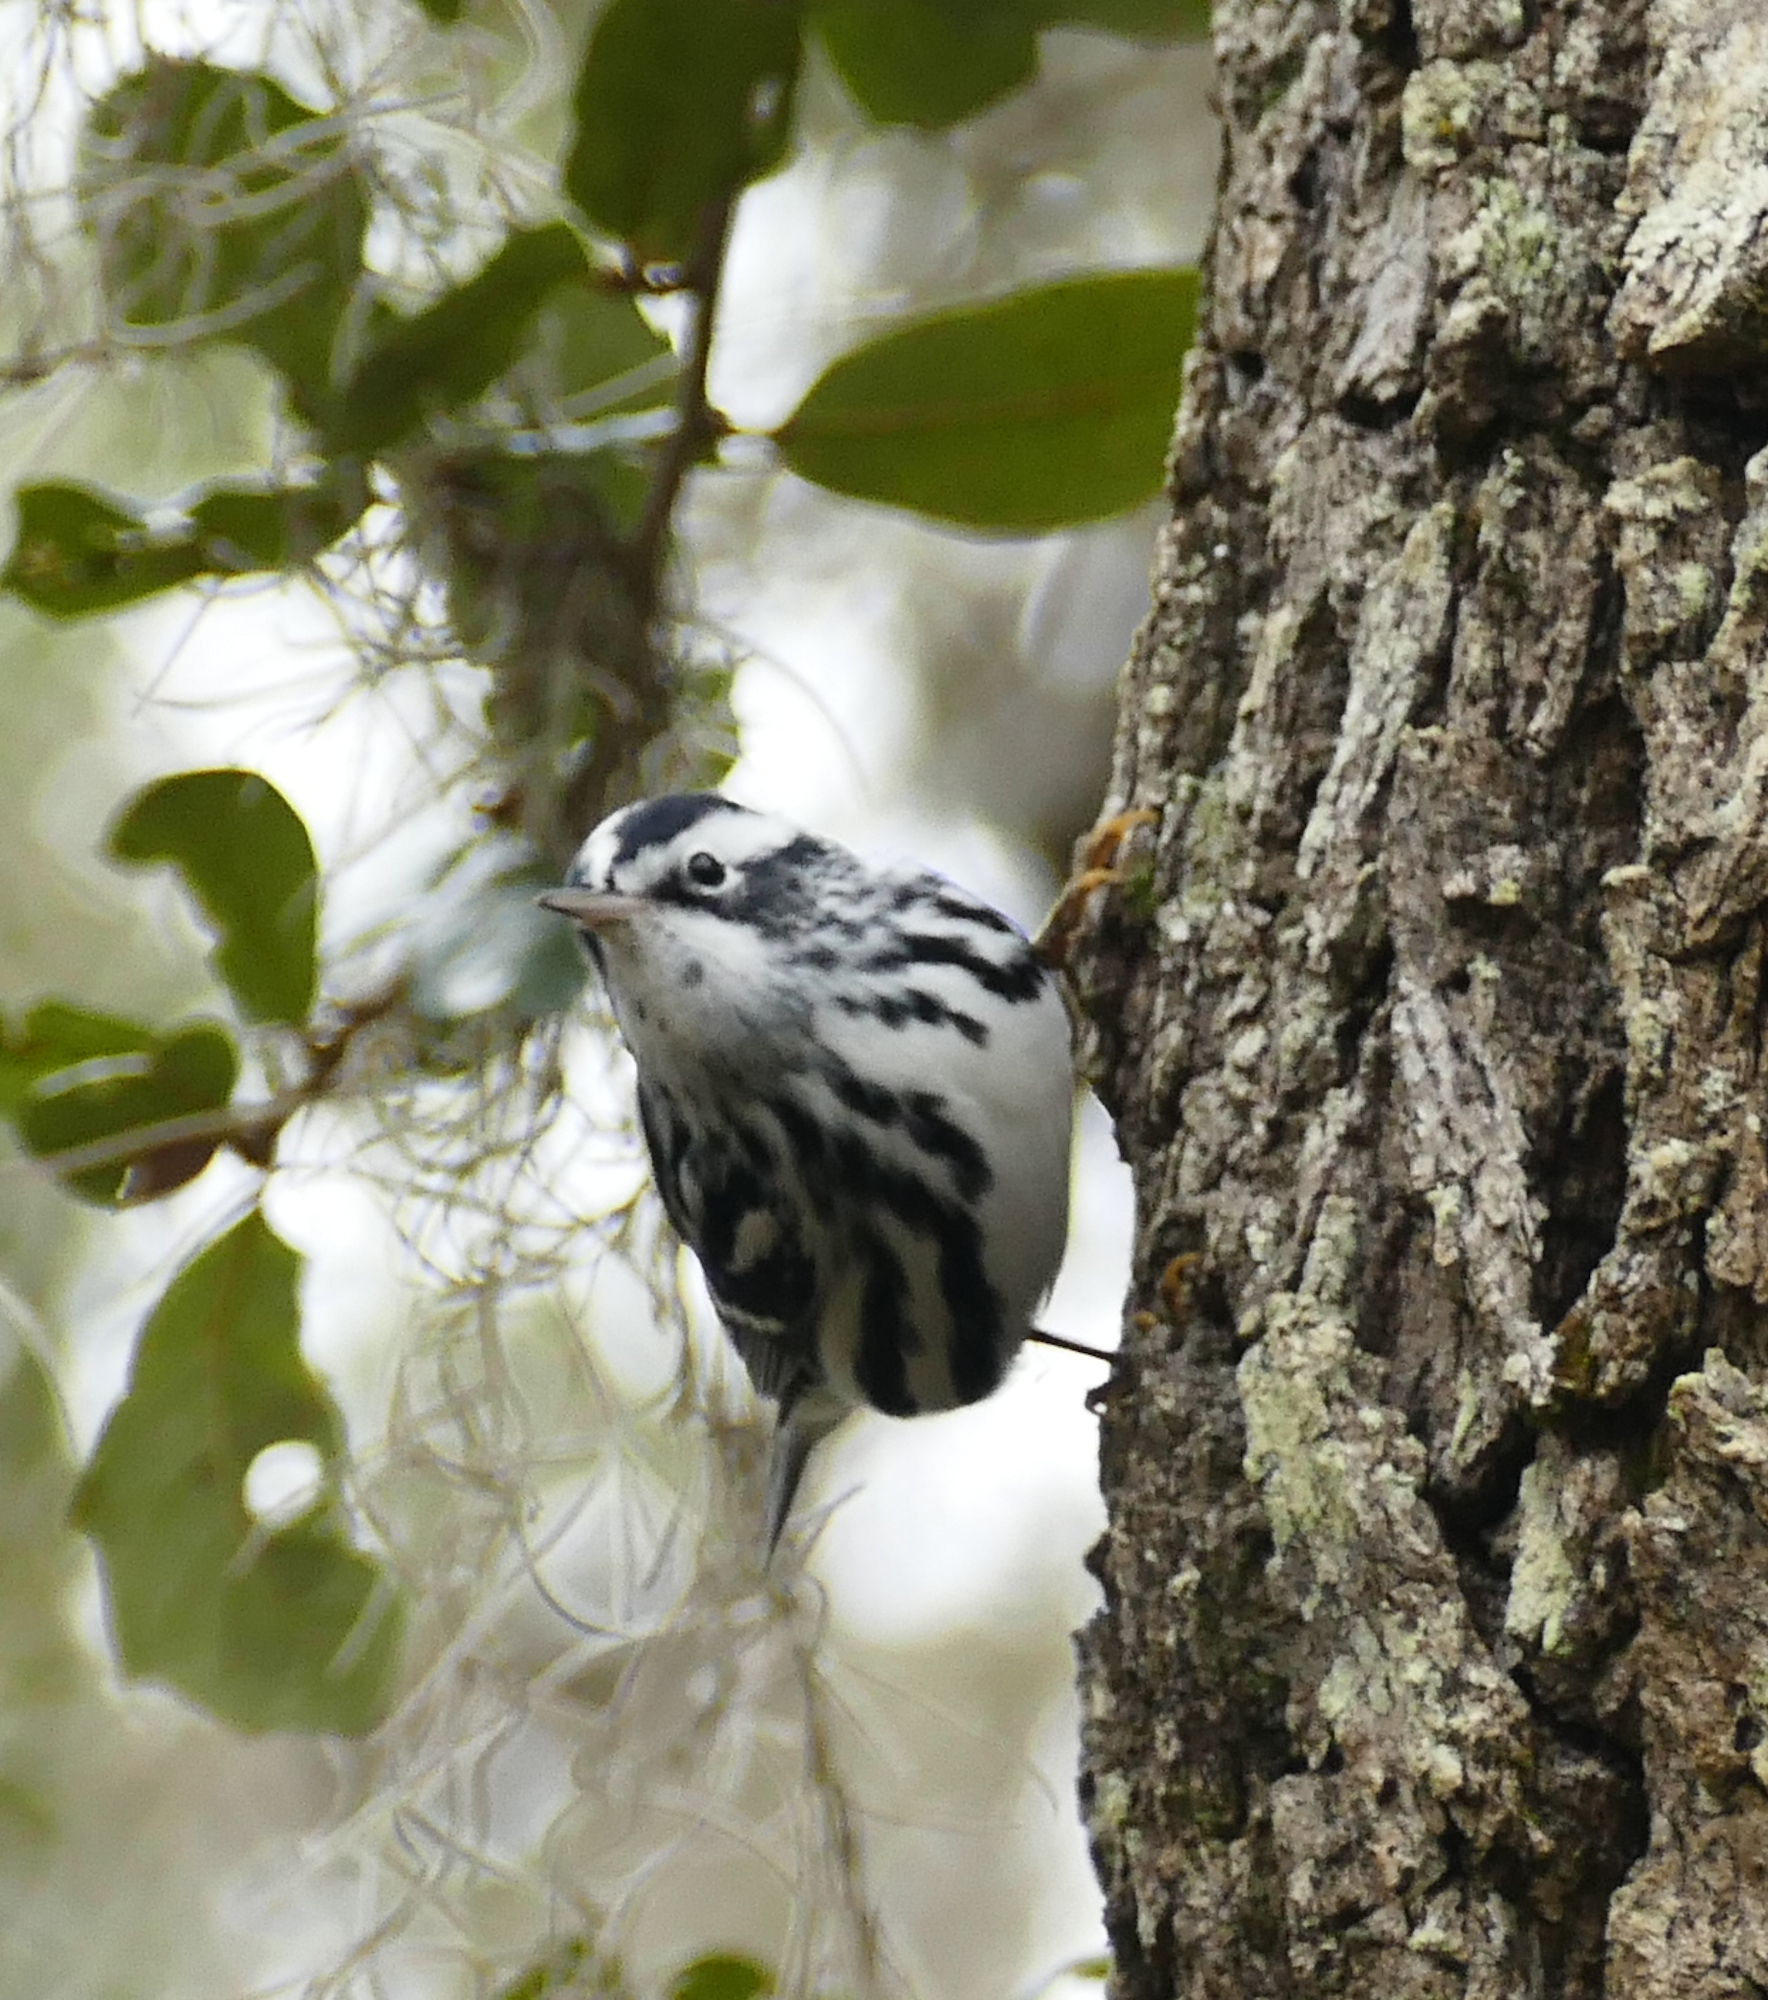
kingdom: Animalia
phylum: Chordata
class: Aves
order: Passeriformes
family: Parulidae
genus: Mniotilta
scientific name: Mniotilta varia
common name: Black-and-white warbler
